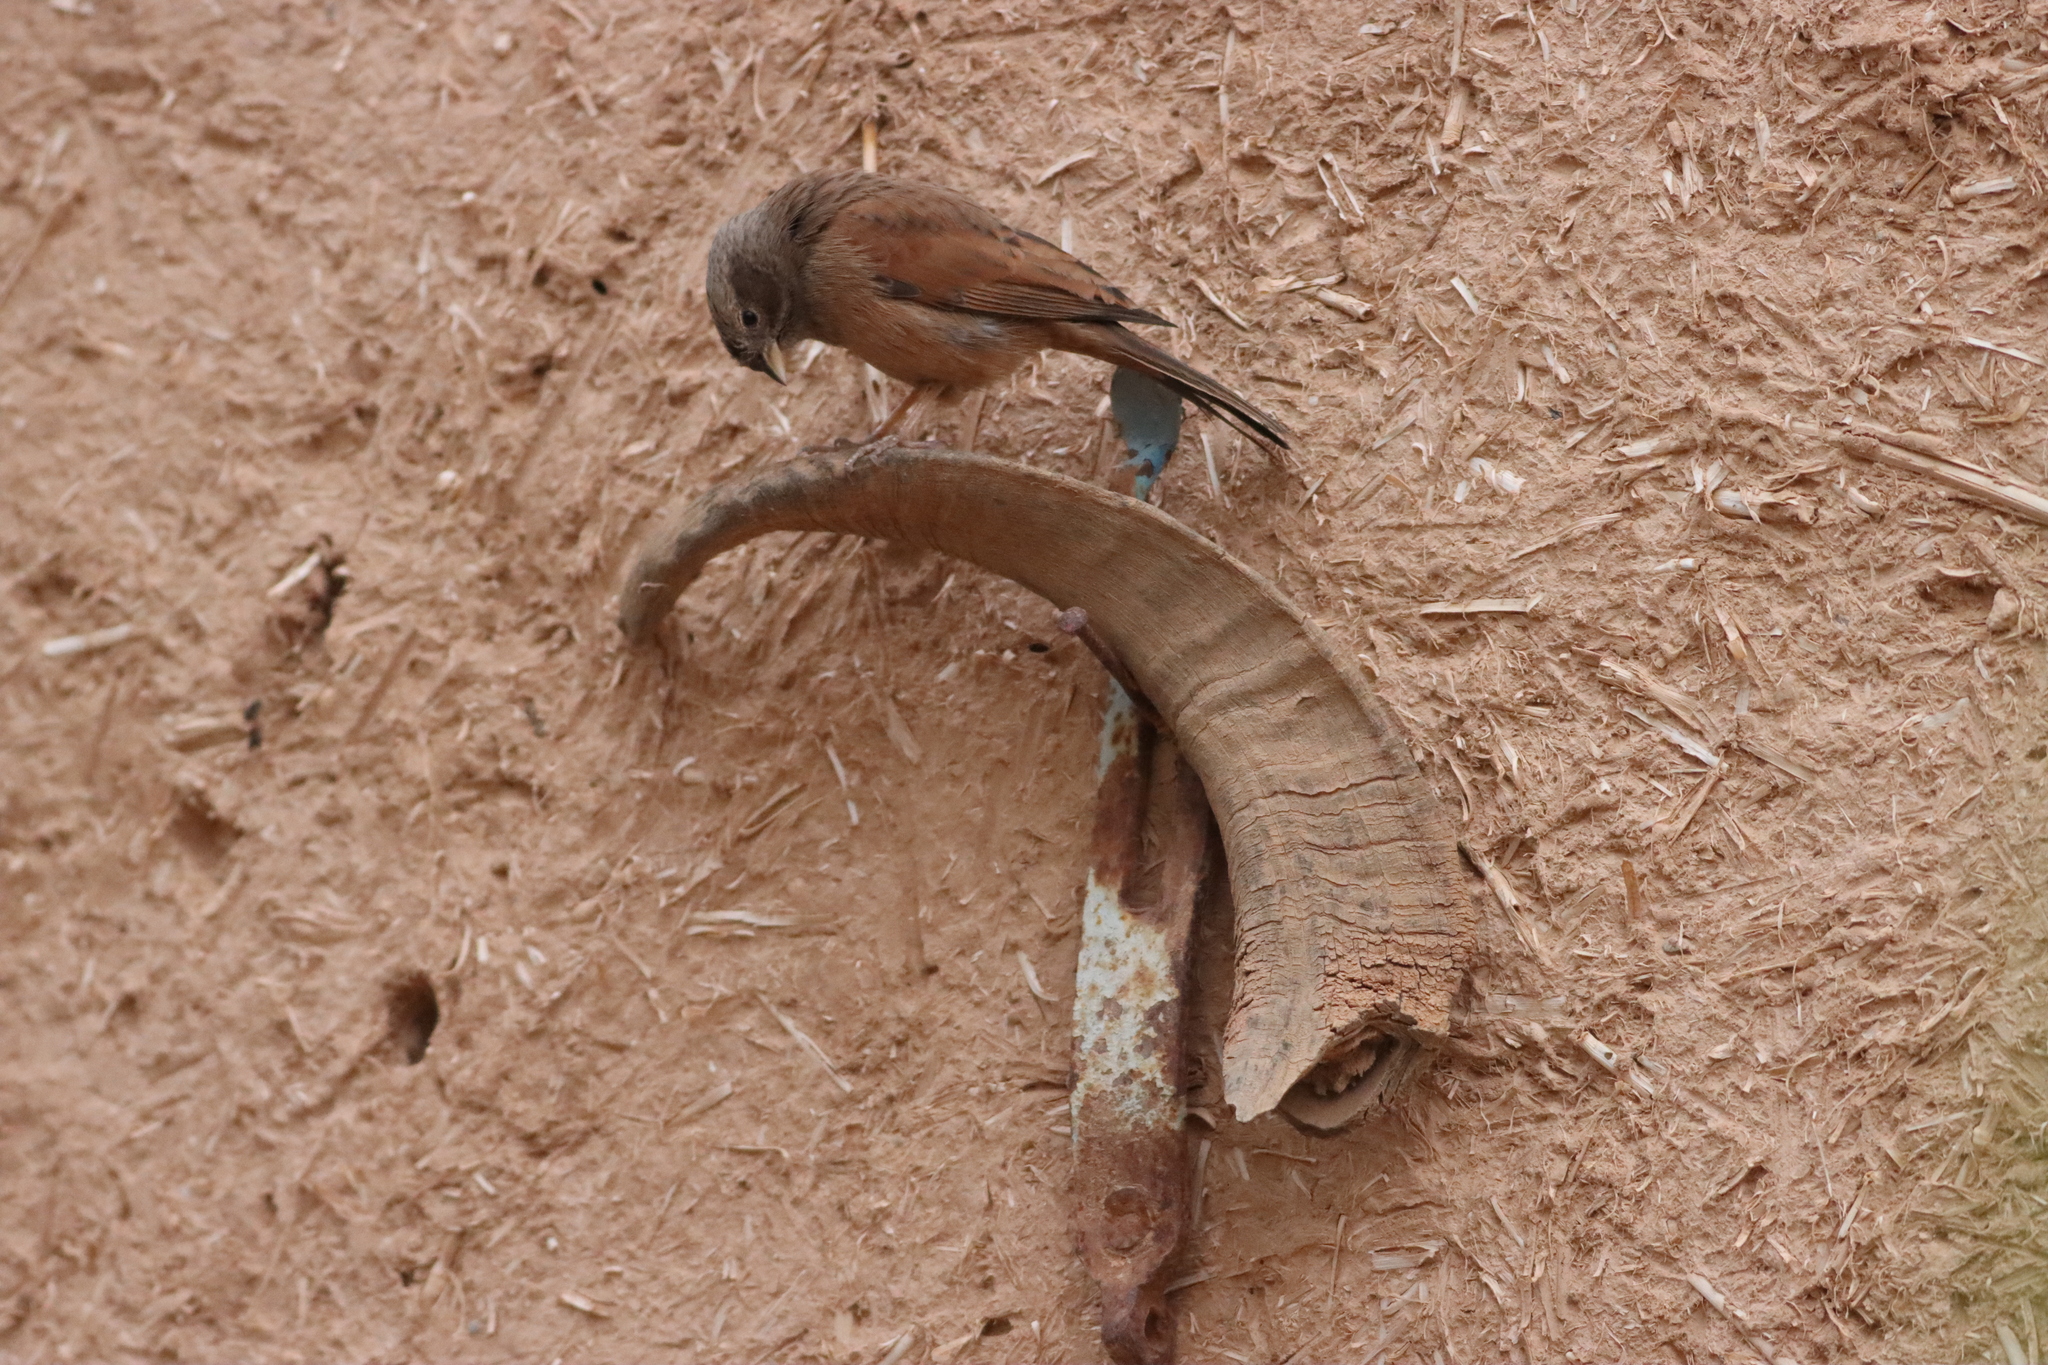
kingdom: Animalia
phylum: Chordata
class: Aves
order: Passeriformes
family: Emberizidae
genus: Emberiza
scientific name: Emberiza sahari
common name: House bunting
